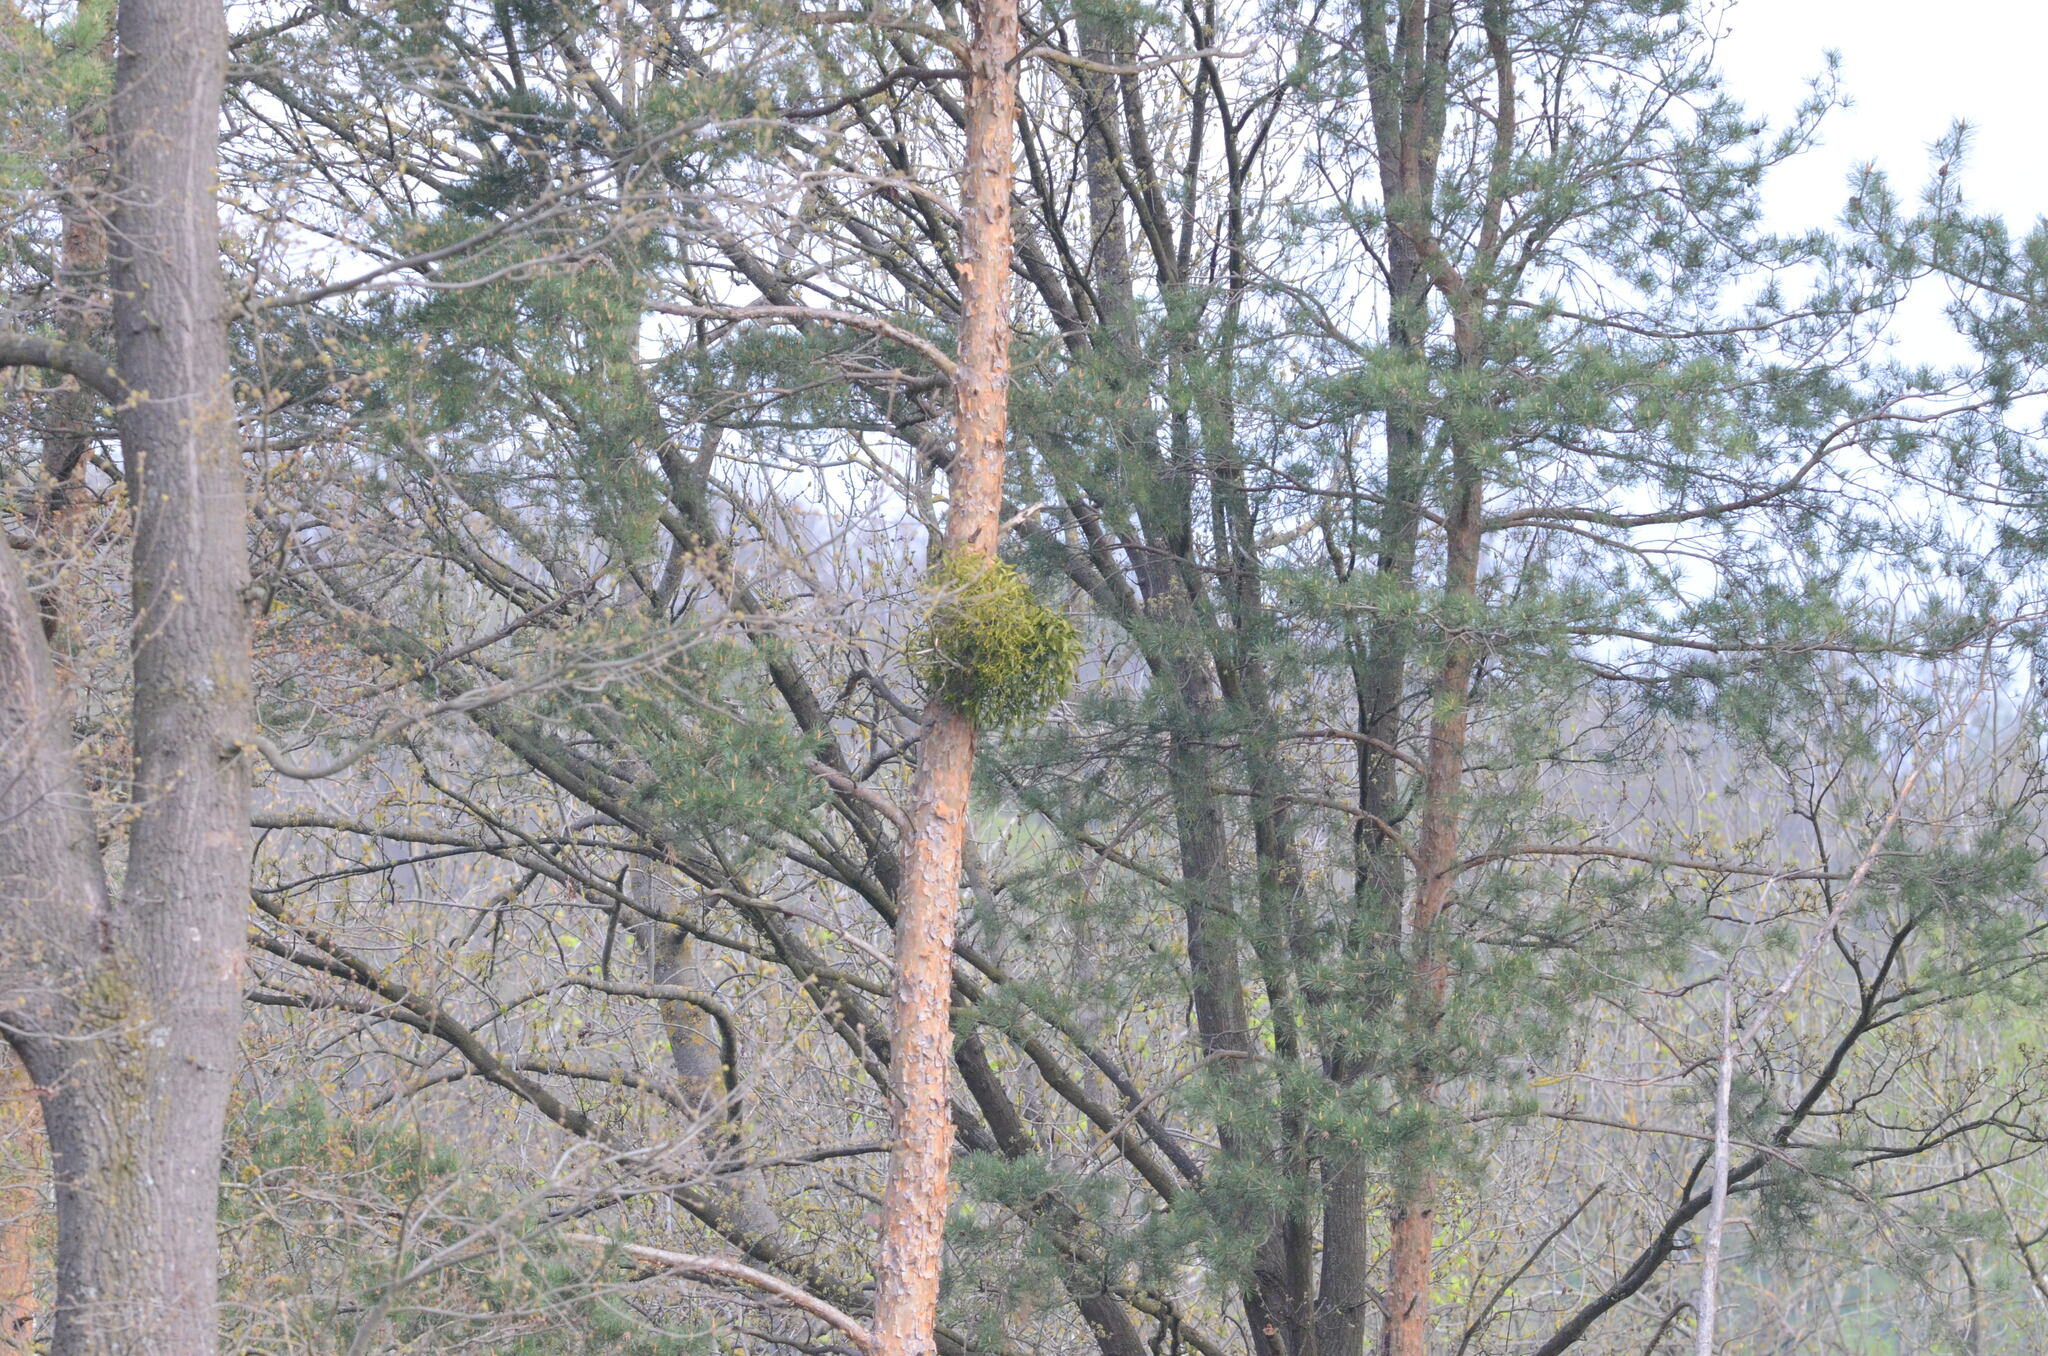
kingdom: Plantae
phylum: Tracheophyta
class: Magnoliopsida
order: Santalales
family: Viscaceae
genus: Viscum
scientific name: Viscum album
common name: Mistletoe
